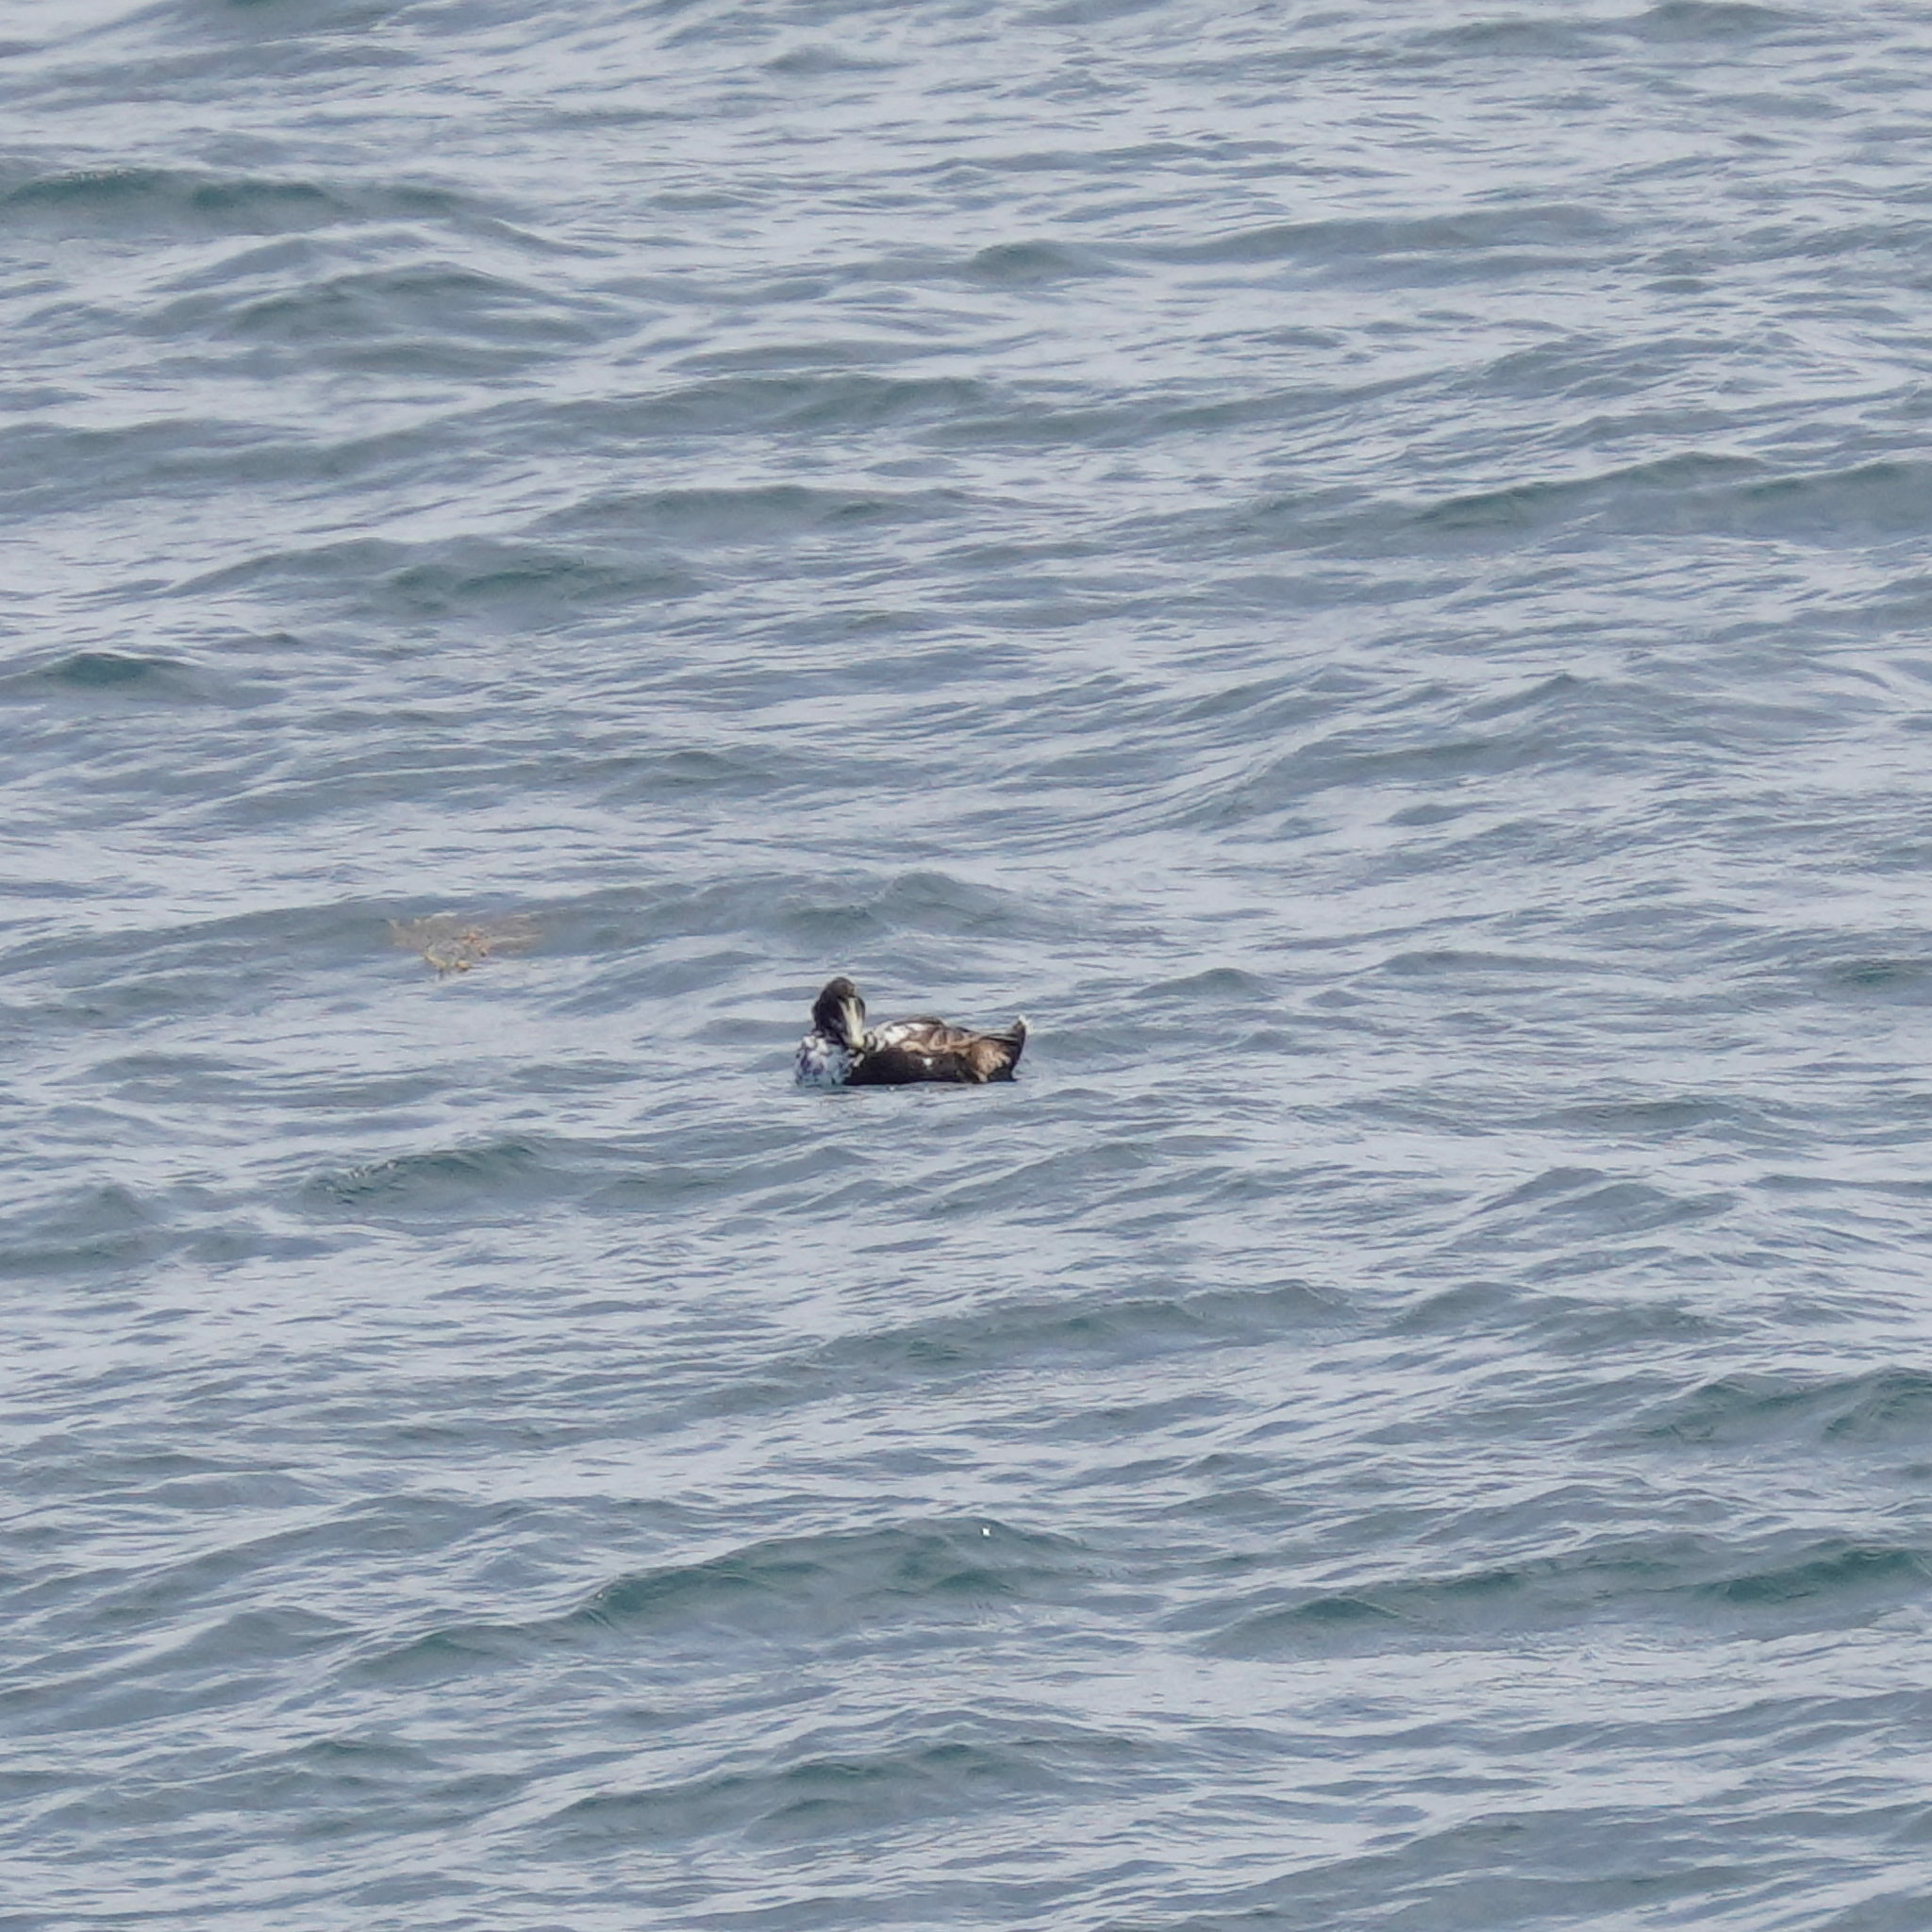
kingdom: Animalia
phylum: Chordata
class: Aves
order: Anseriformes
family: Anatidae
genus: Somateria
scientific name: Somateria mollissima
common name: Common eider
